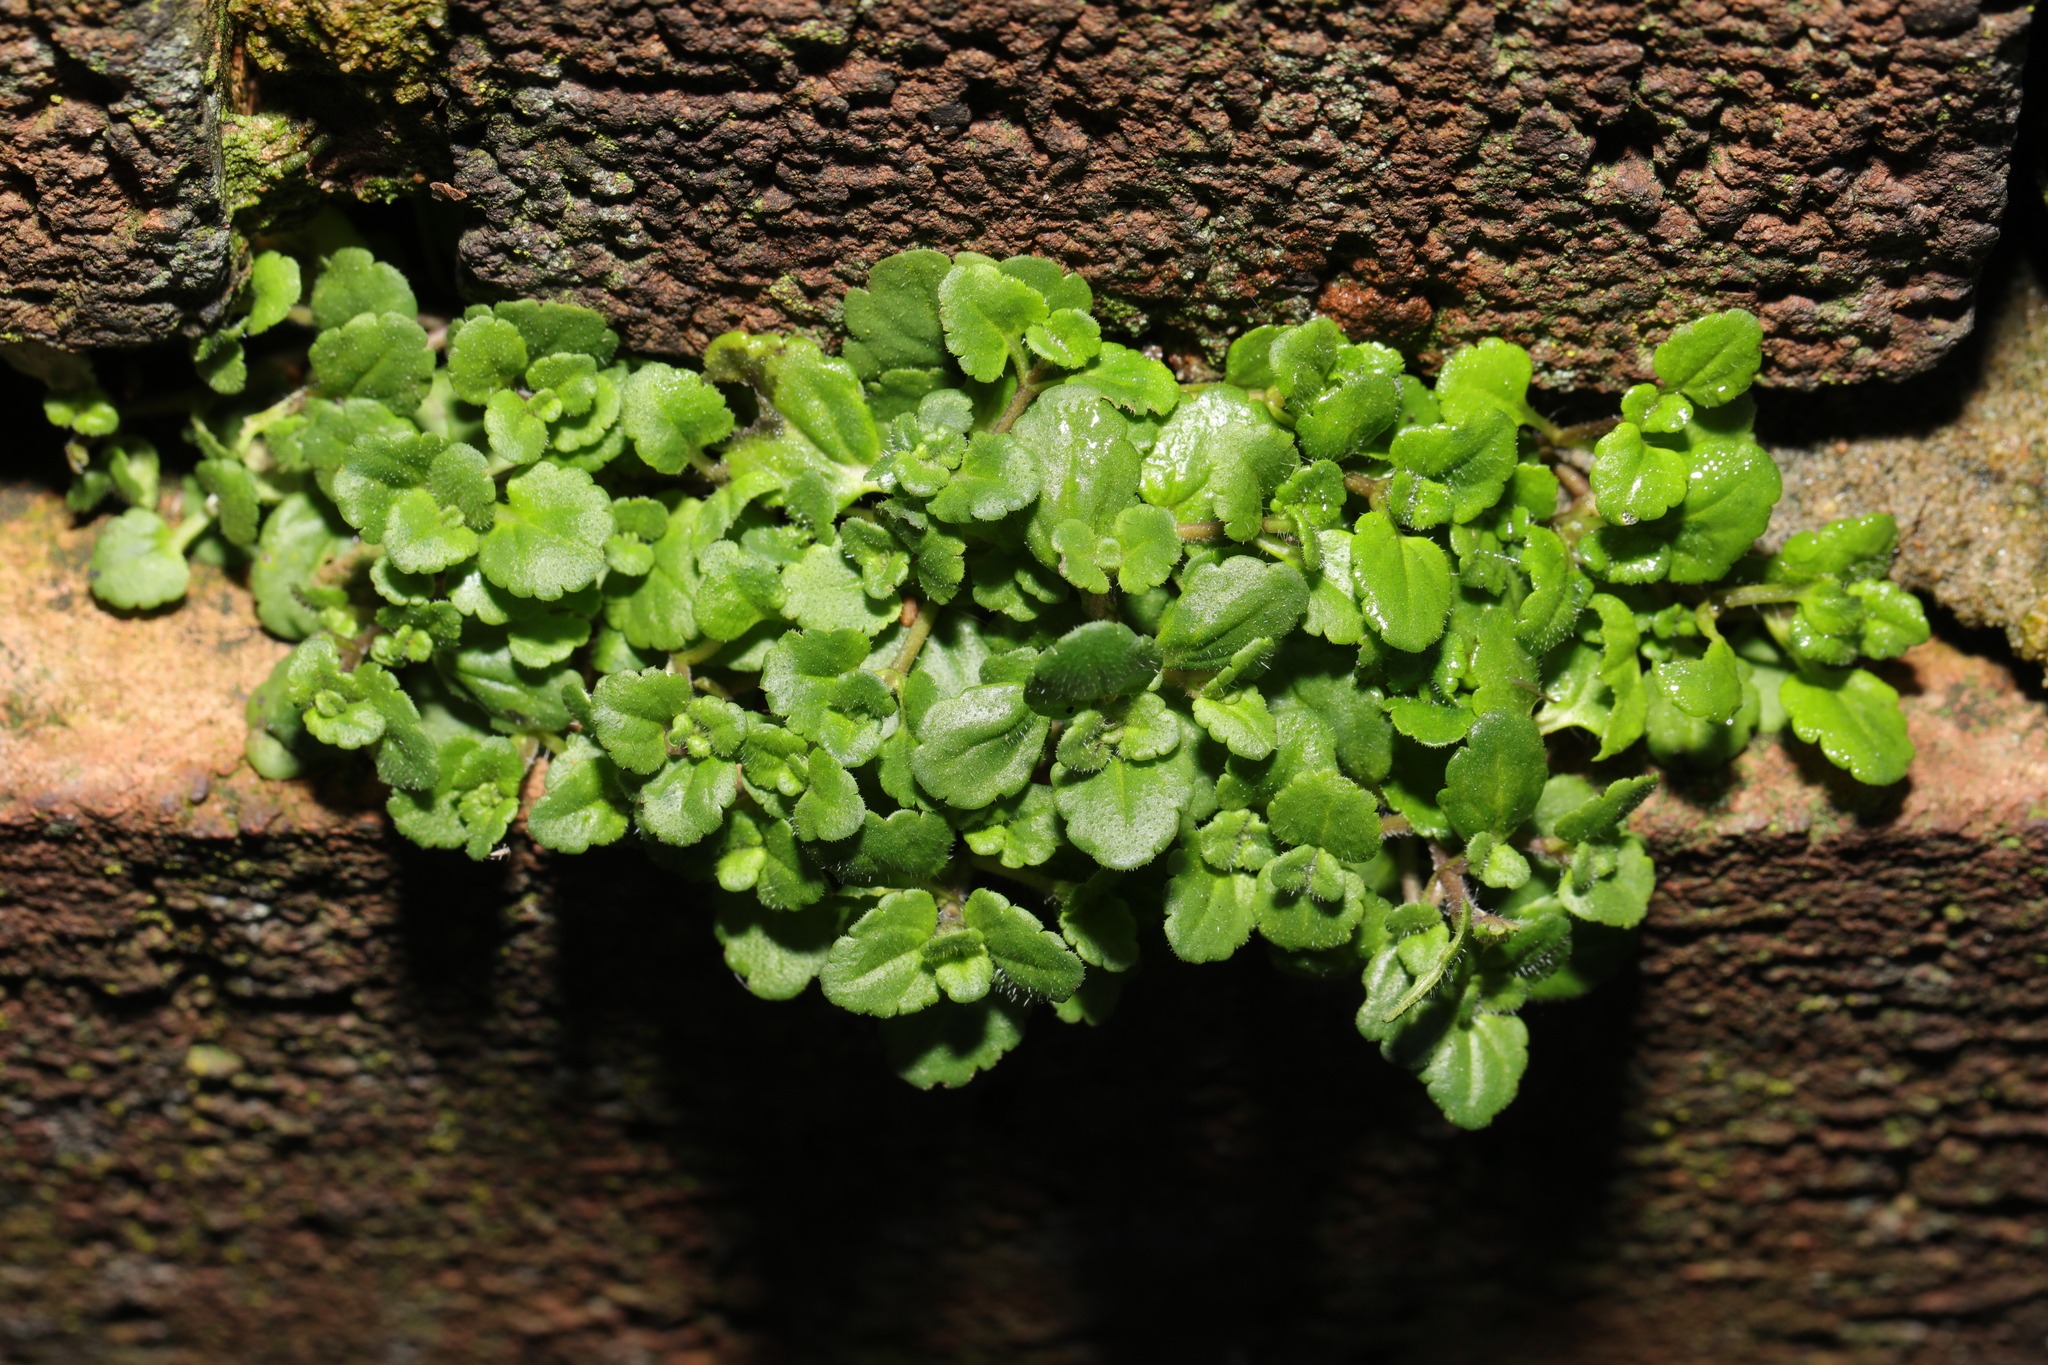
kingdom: Plantae
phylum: Tracheophyta
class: Magnoliopsida
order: Lamiales
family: Plantaginaceae
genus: Veronica
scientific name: Veronica arvensis
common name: Corn speedwell
